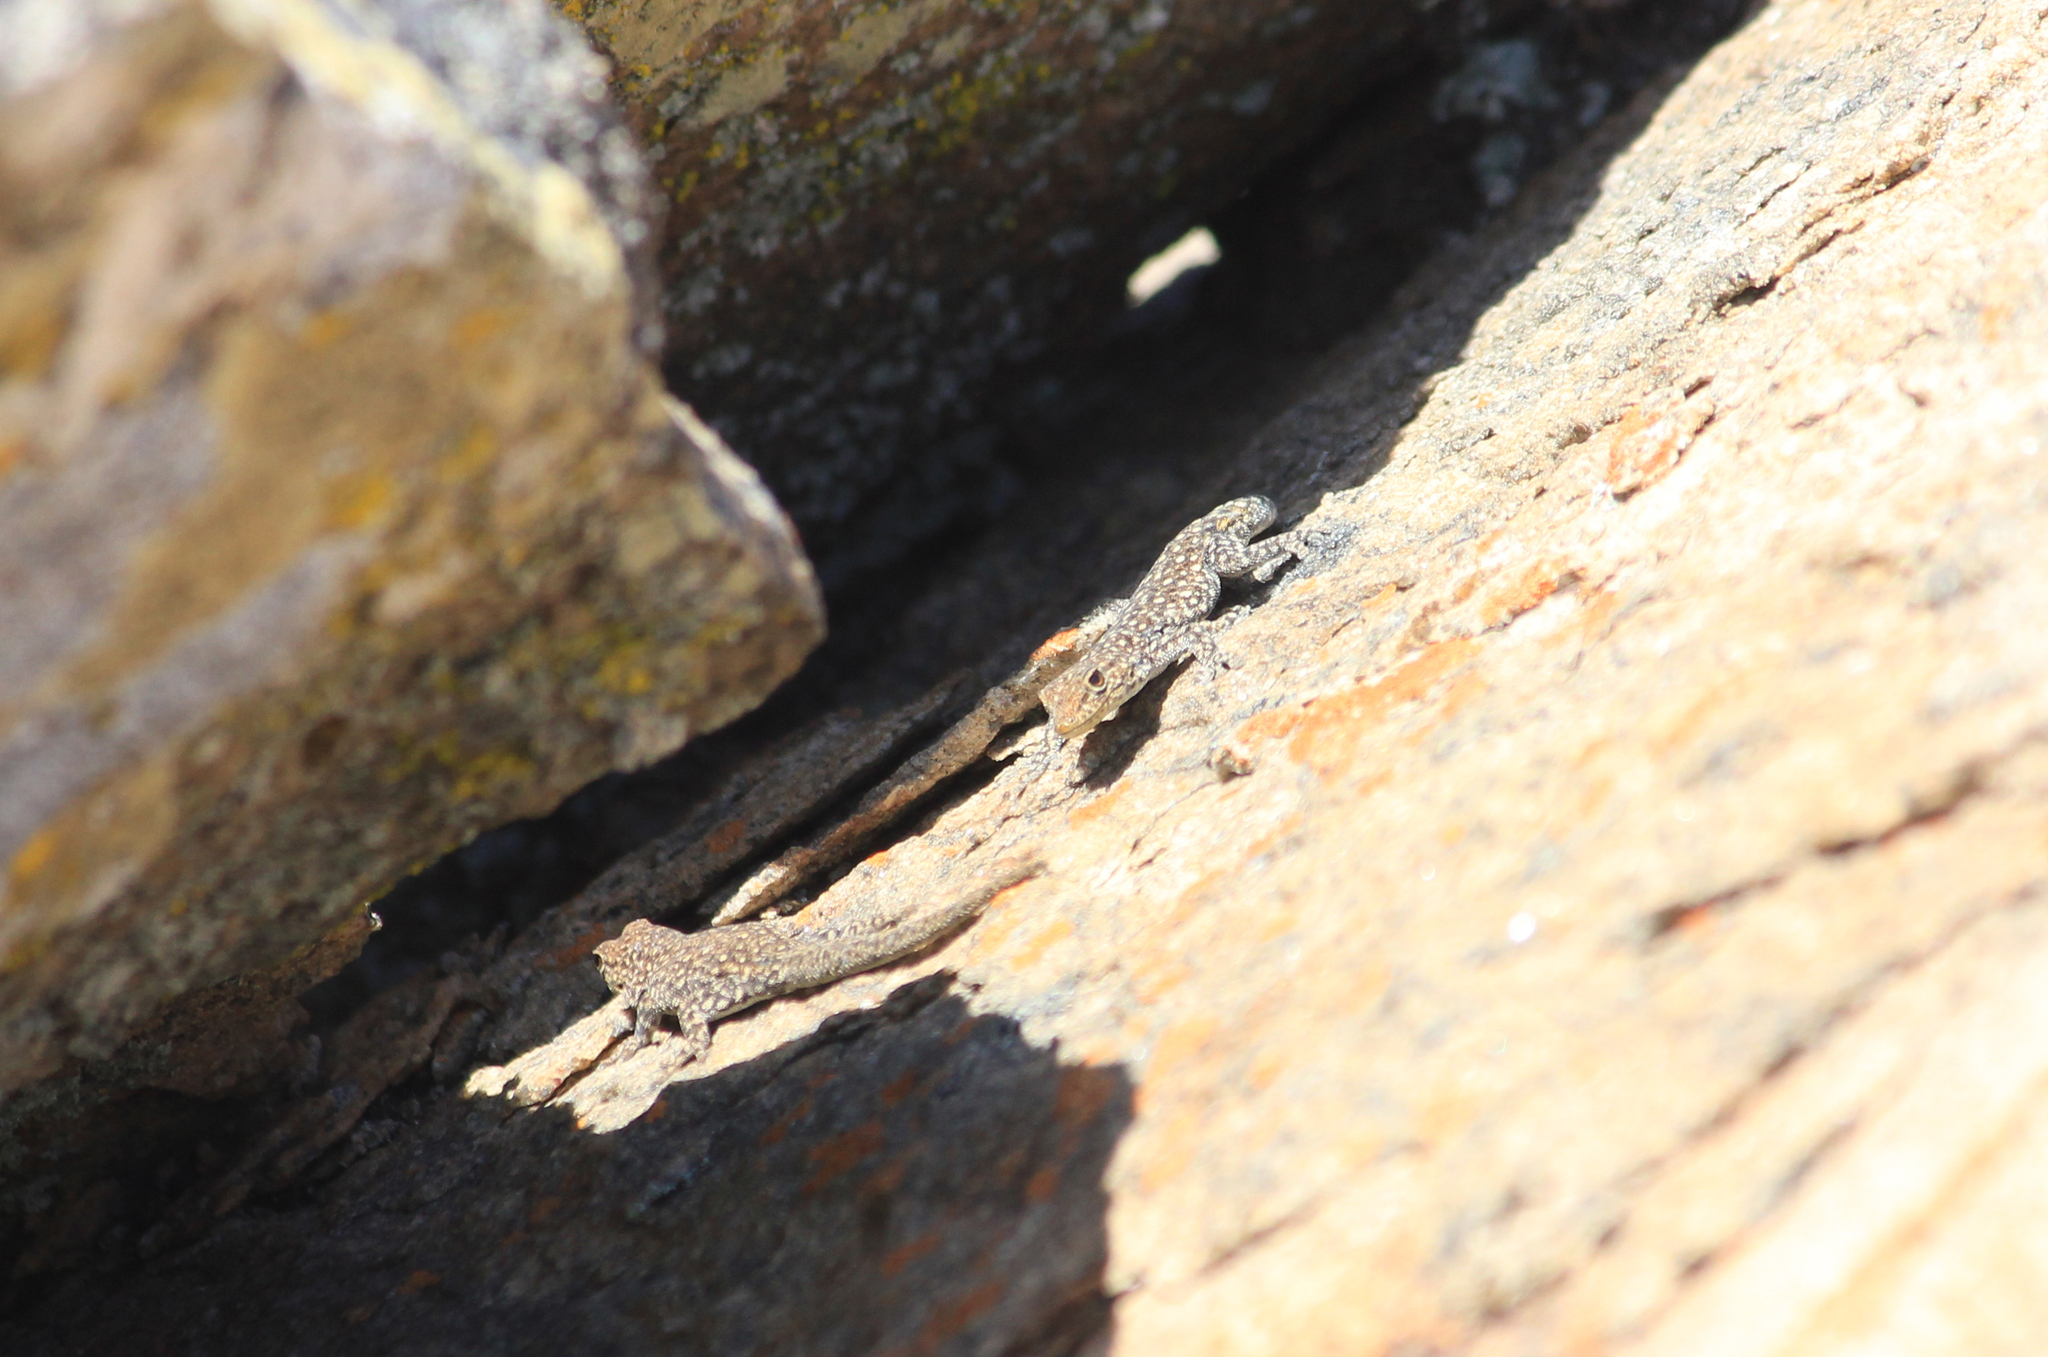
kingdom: Animalia
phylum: Chordata
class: Squamata
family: Gekkonidae
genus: Rhoptropella
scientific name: Rhoptropella ocellata
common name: Namaqua day gecko
